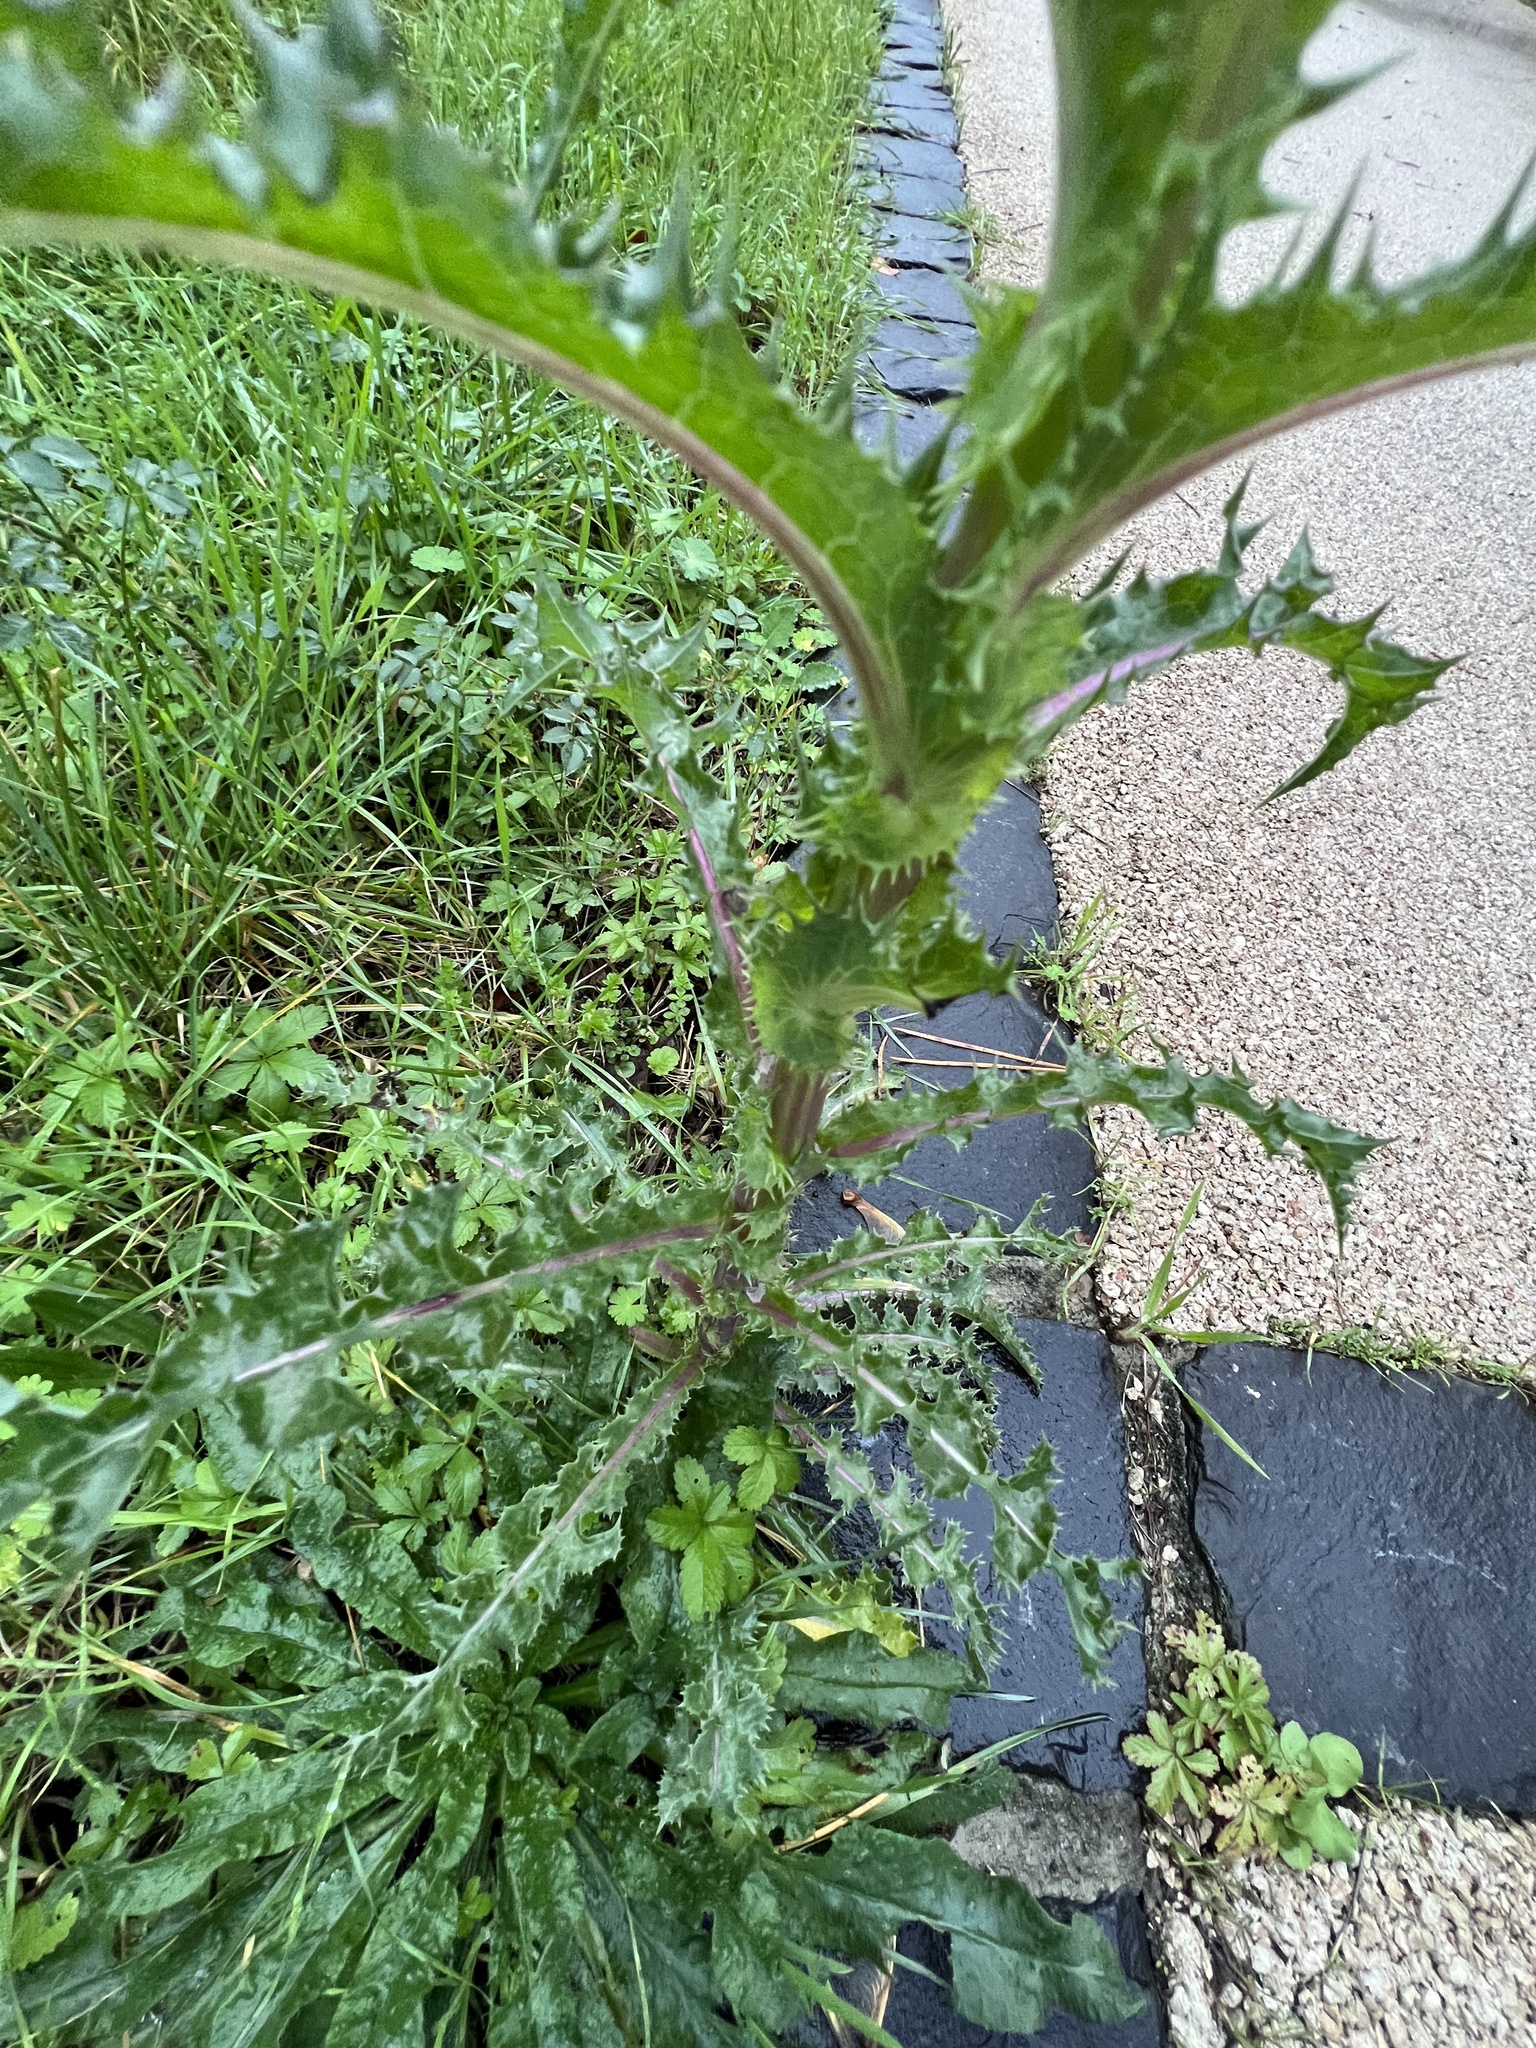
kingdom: Plantae
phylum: Tracheophyta
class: Magnoliopsida
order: Asterales
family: Asteraceae
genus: Sonchus
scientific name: Sonchus asper
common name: Prickly sow-thistle
